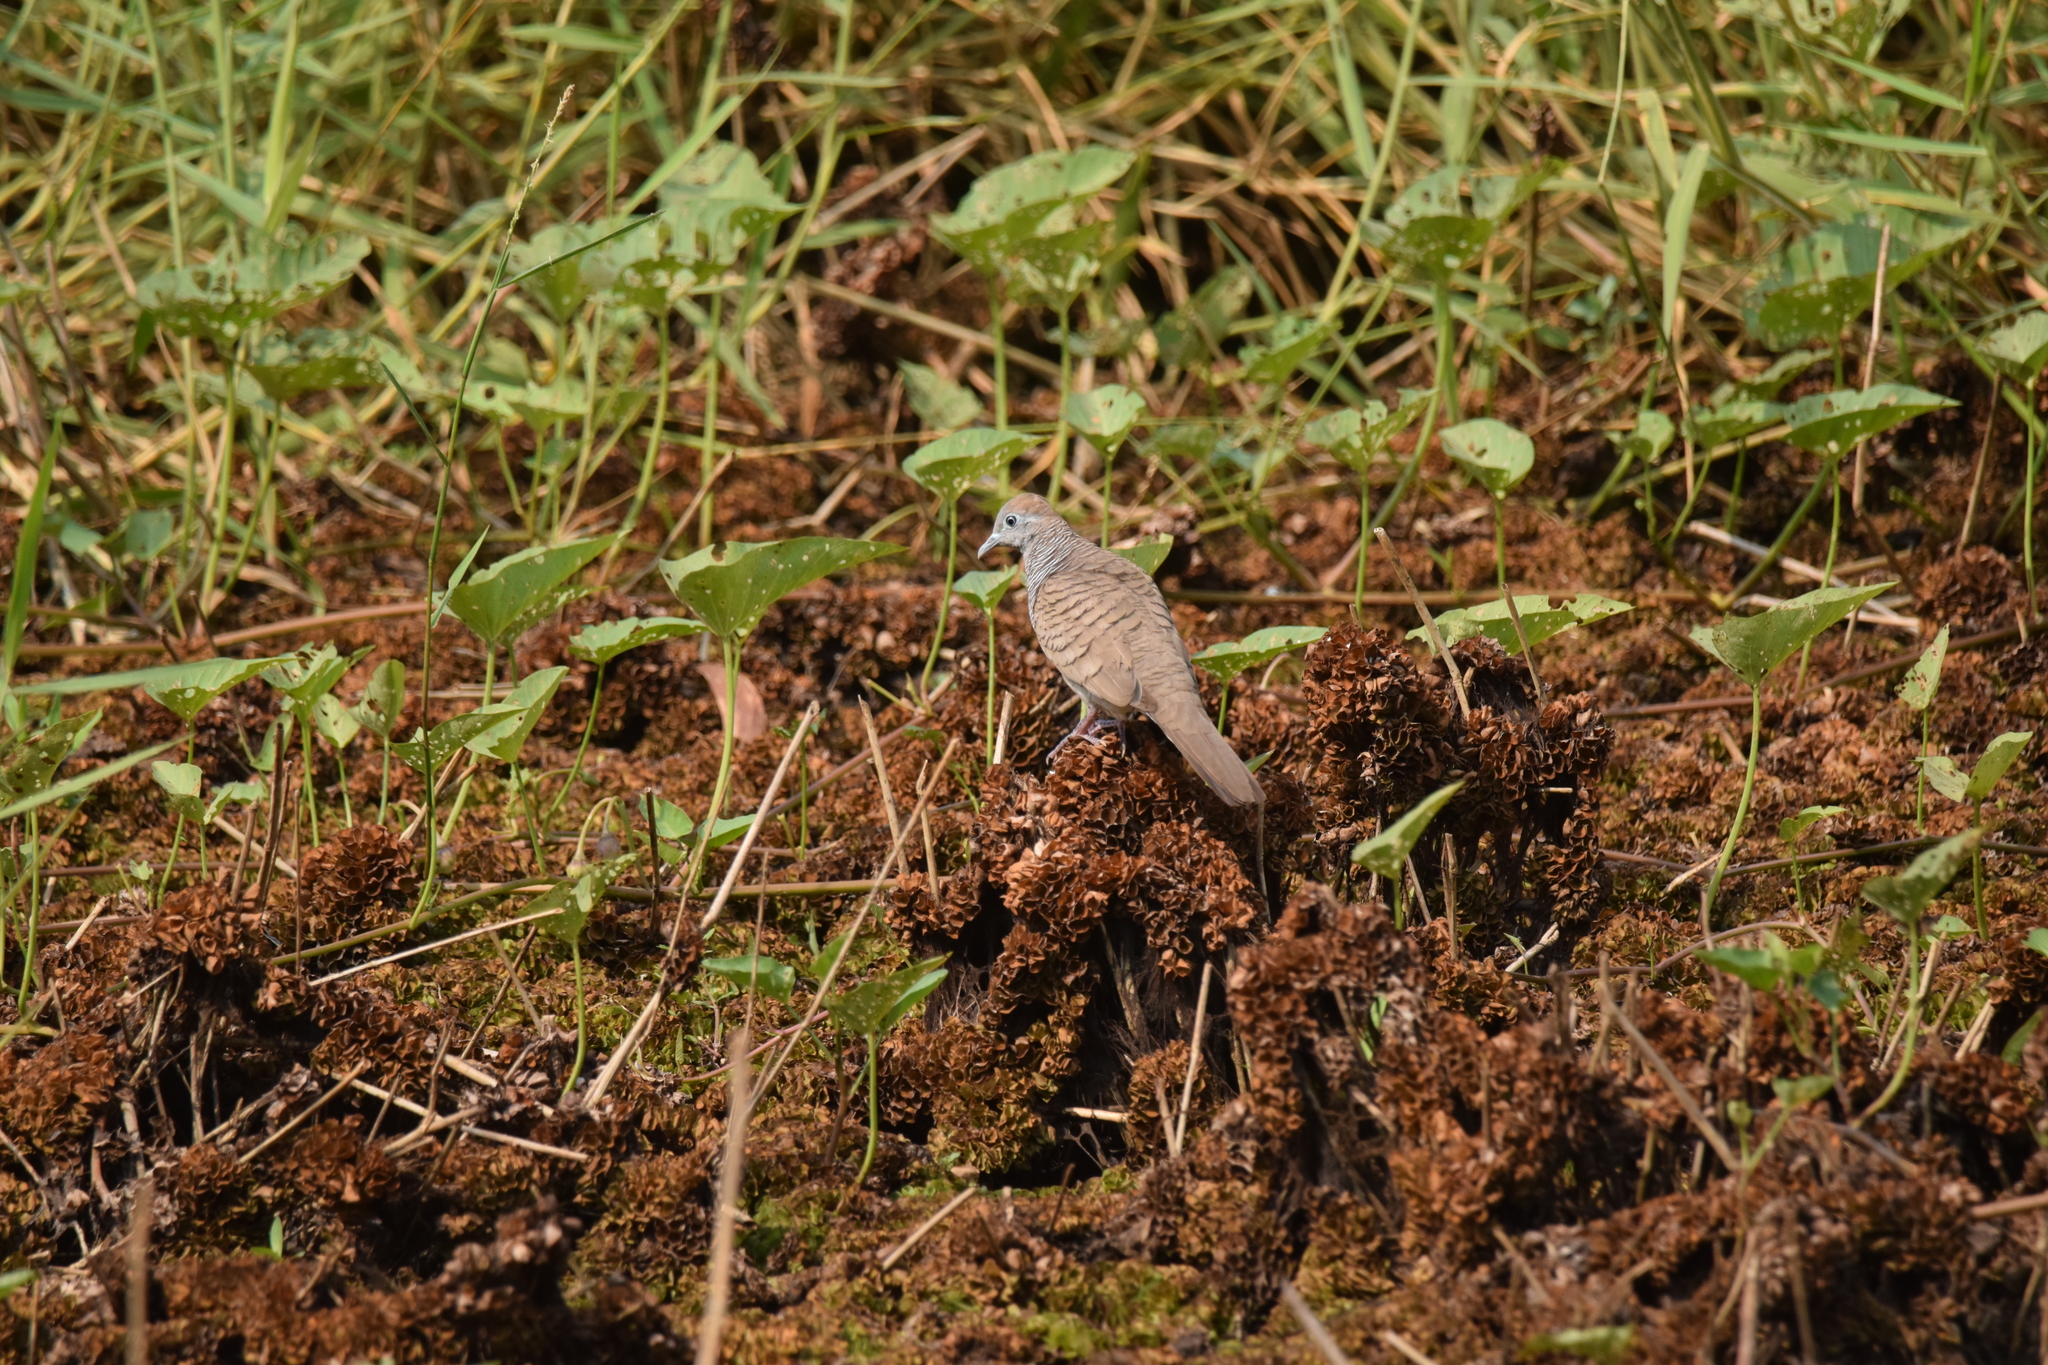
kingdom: Animalia
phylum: Chordata
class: Aves
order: Columbiformes
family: Columbidae
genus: Geopelia
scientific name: Geopelia striata
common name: Zebra dove
